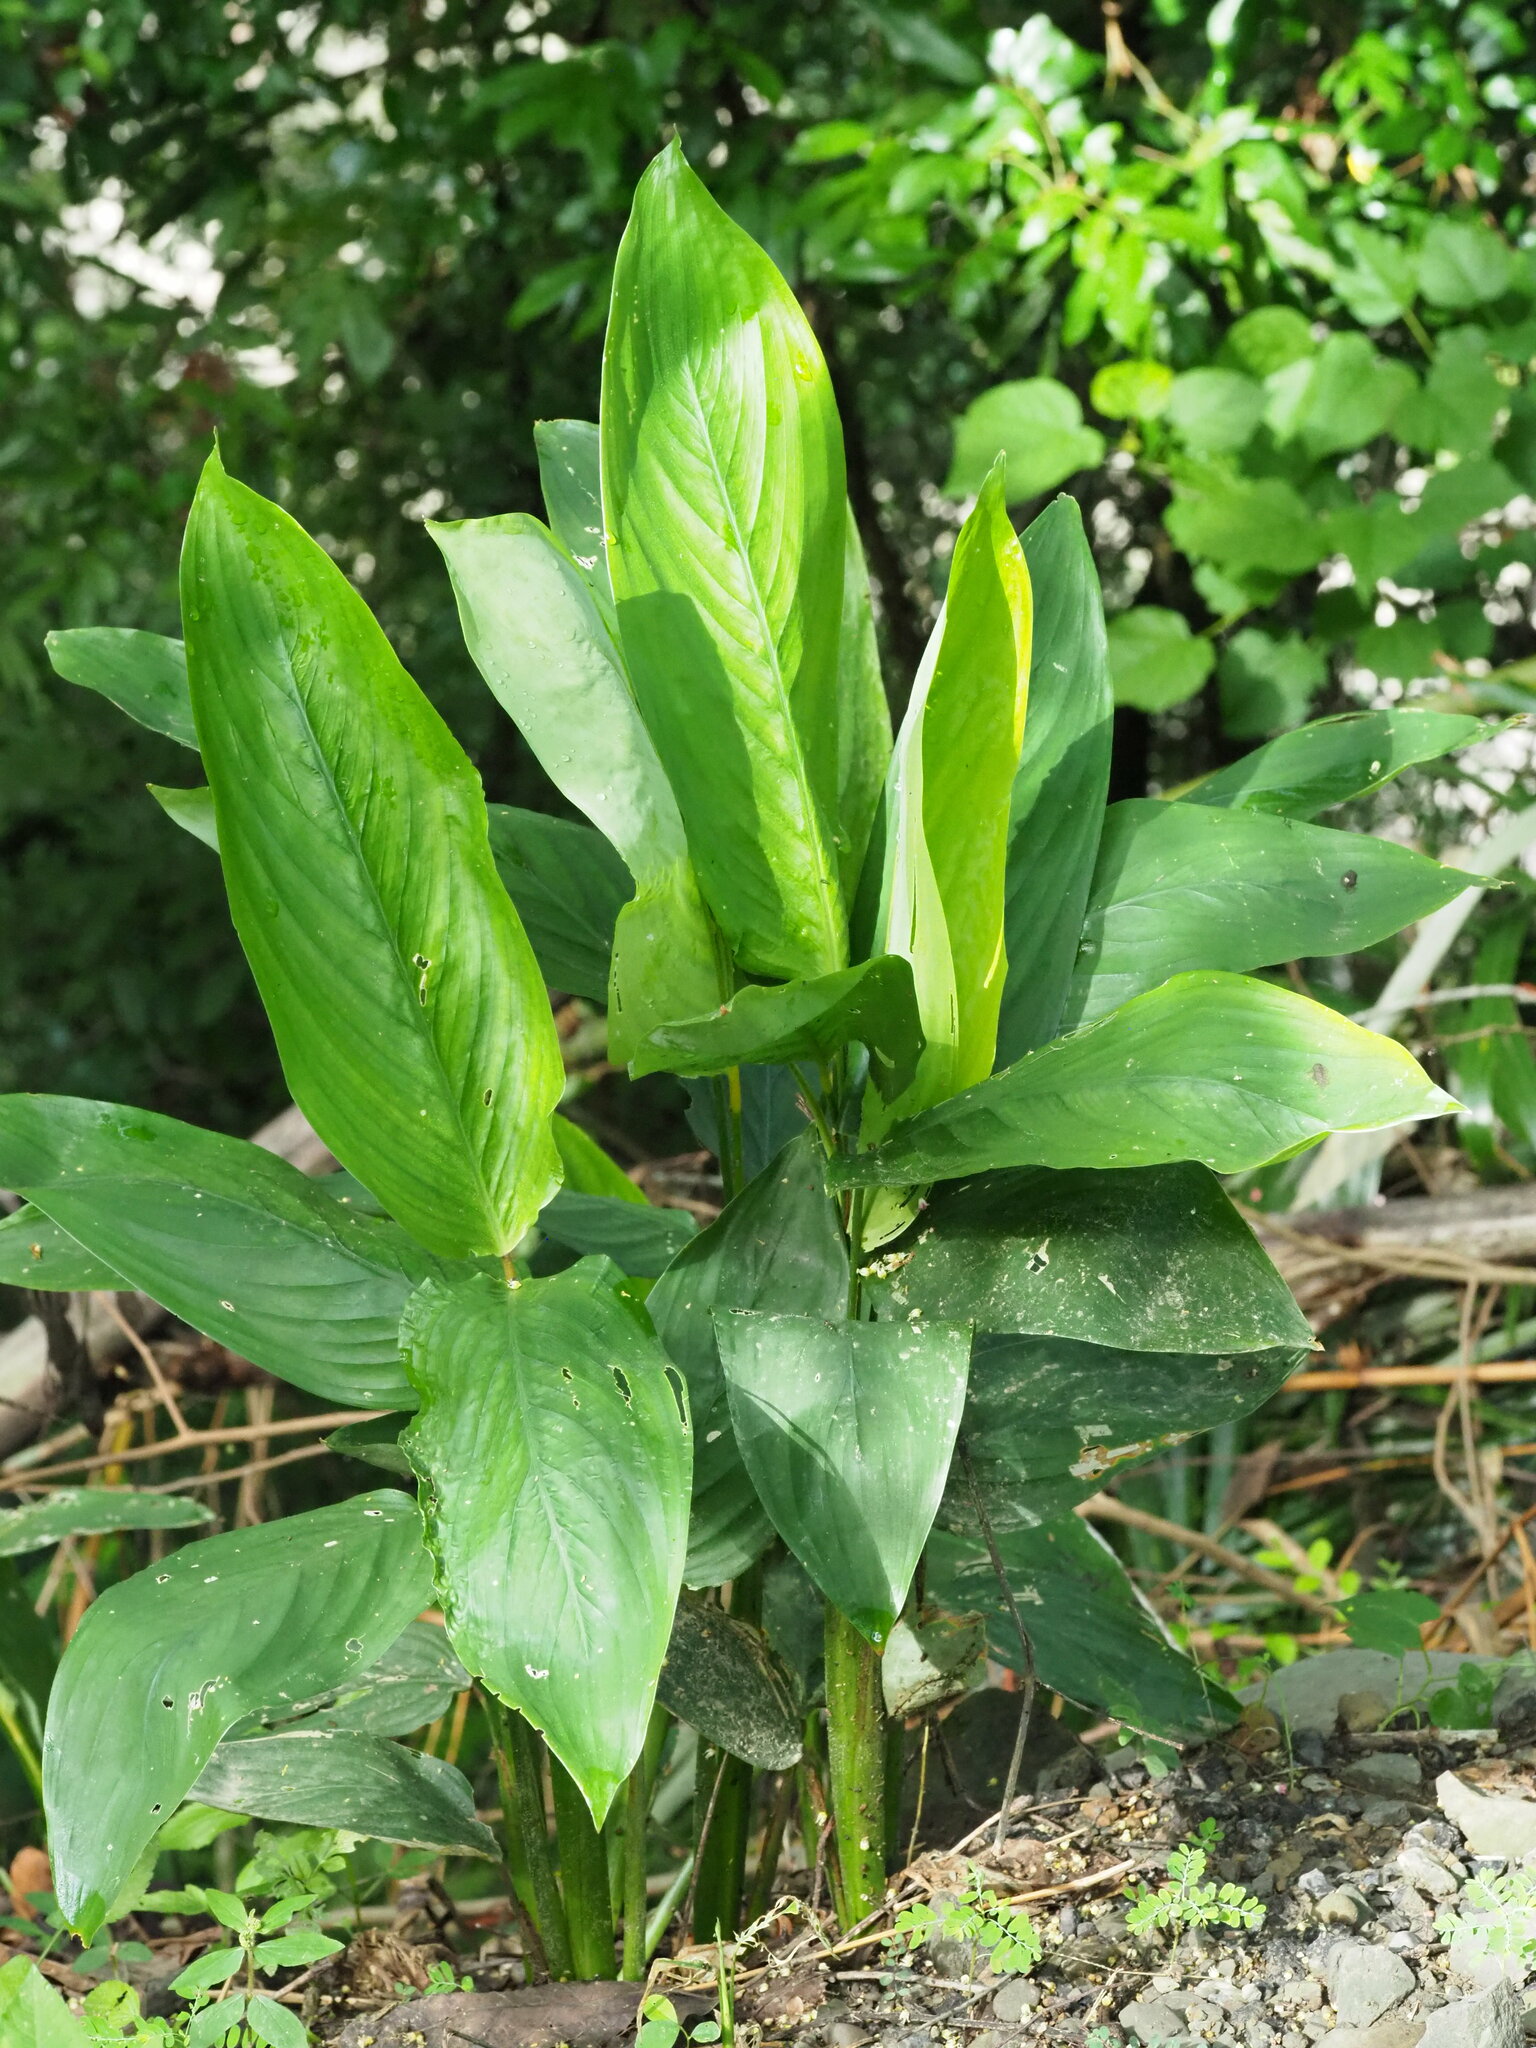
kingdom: Plantae
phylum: Tracheophyta
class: Liliopsida
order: Zingiberales
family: Marantaceae
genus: Maranta
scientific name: Maranta arundinacea
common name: Arrowroot
